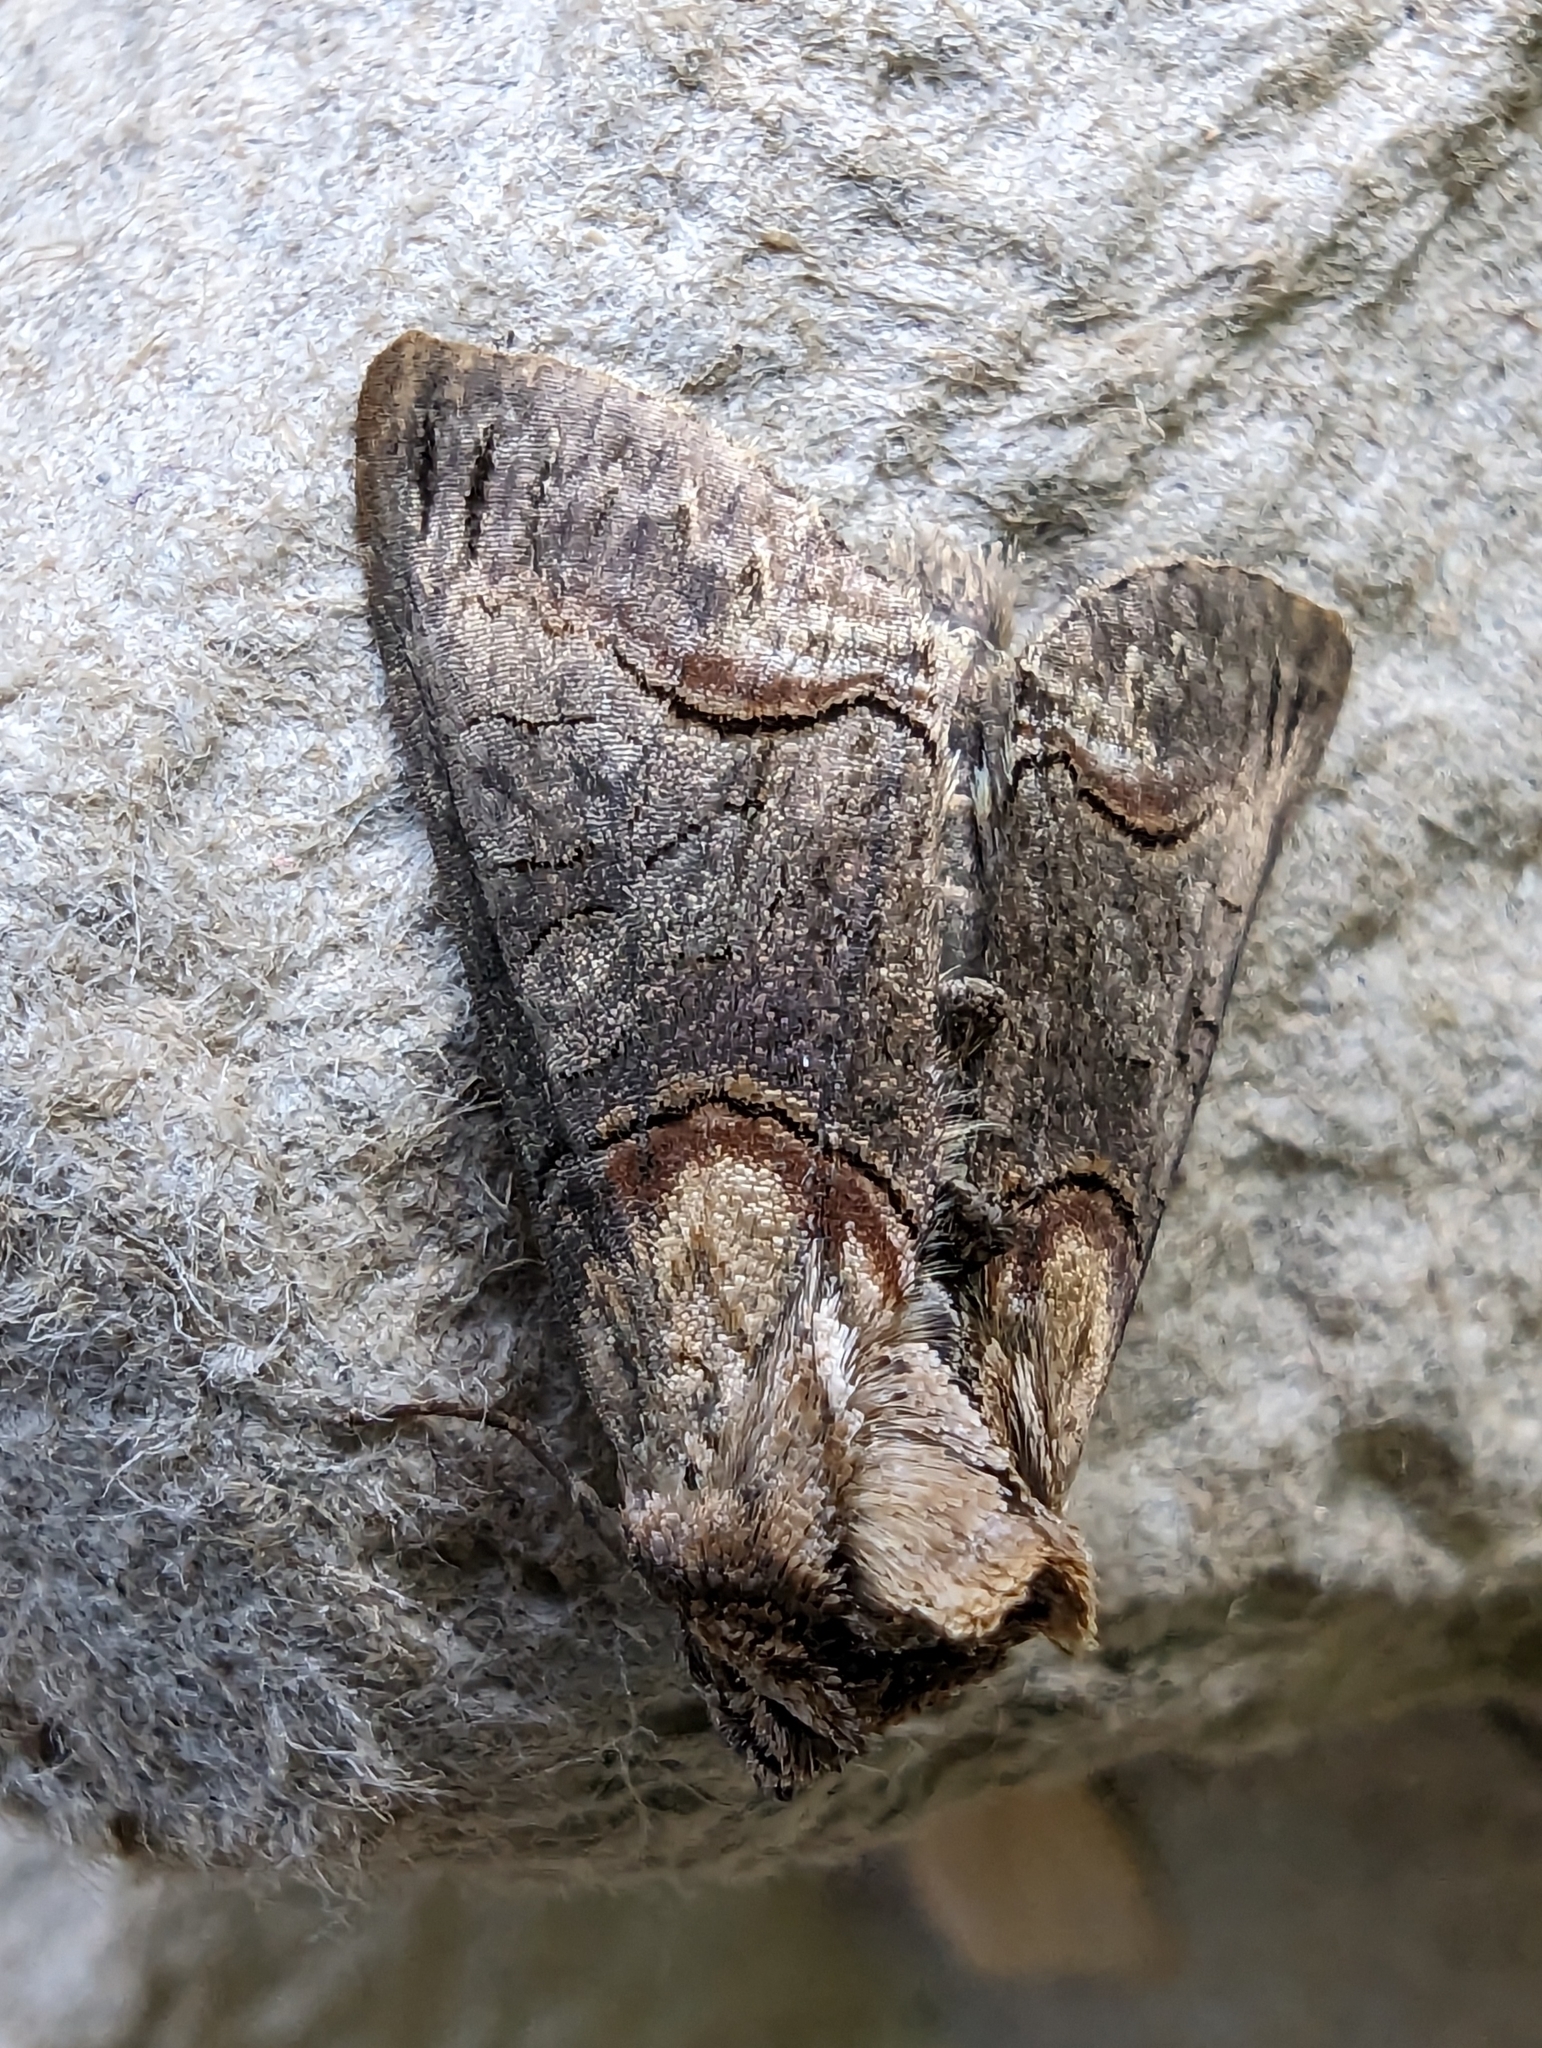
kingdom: Animalia
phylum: Arthropoda
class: Insecta
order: Lepidoptera
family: Noctuidae
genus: Abrostola
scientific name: Abrostola triplasia
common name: Dark spectacle
